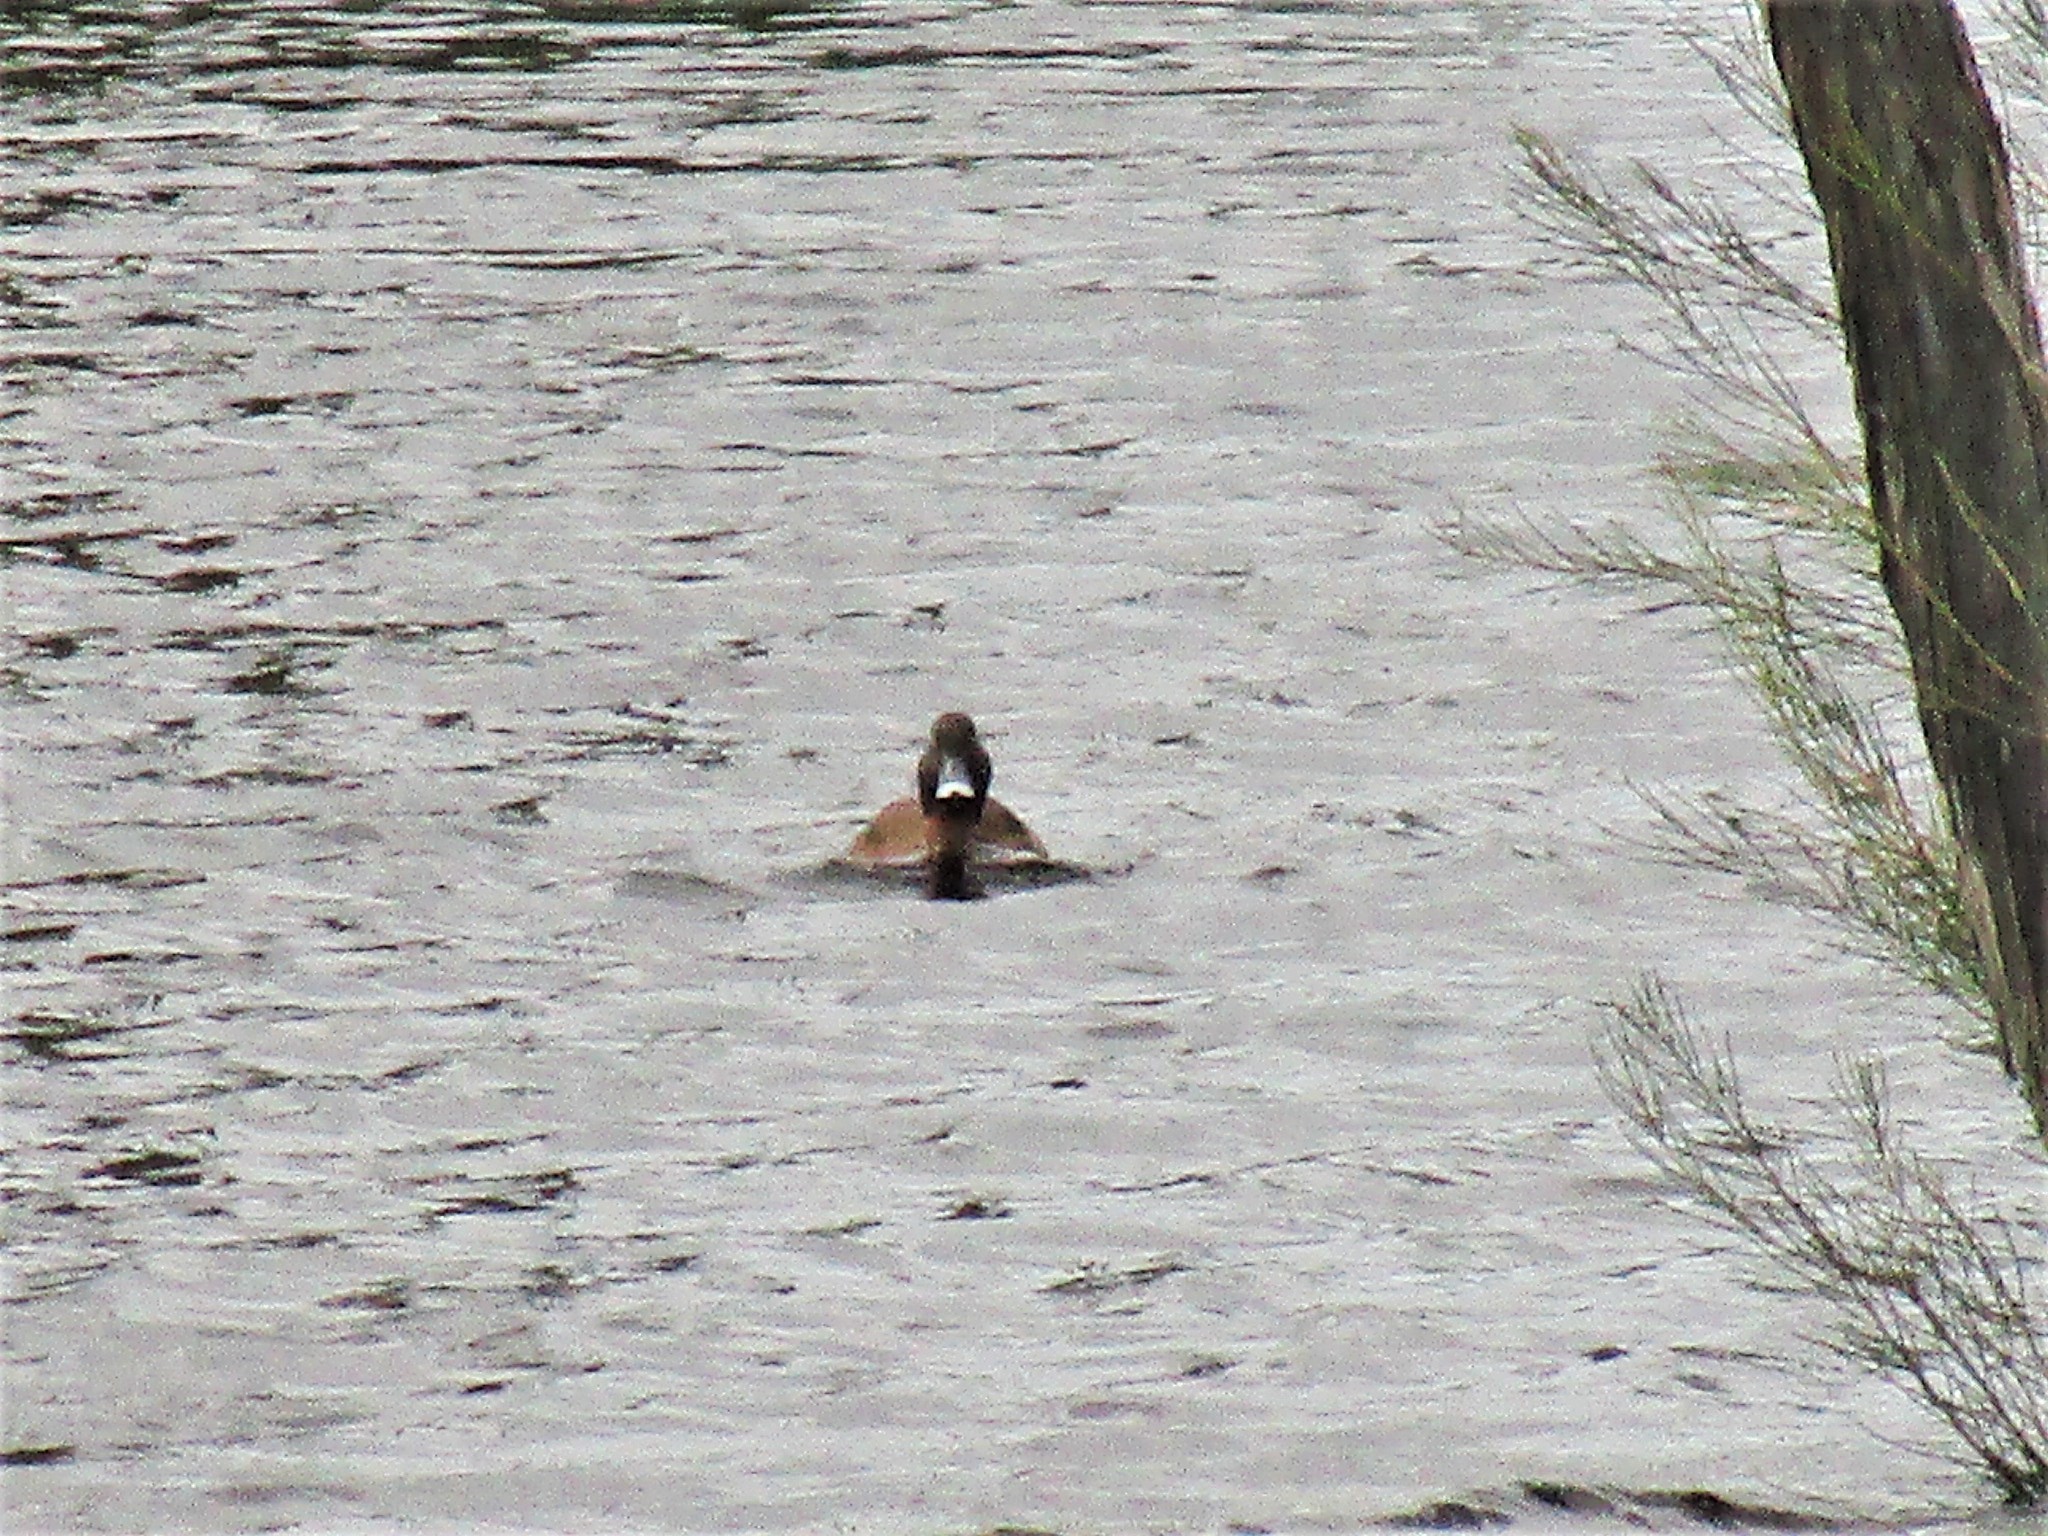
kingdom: Animalia
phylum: Chordata
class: Aves
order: Anseriformes
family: Anatidae
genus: Aythya
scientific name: Aythya australis
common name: Hardhead
